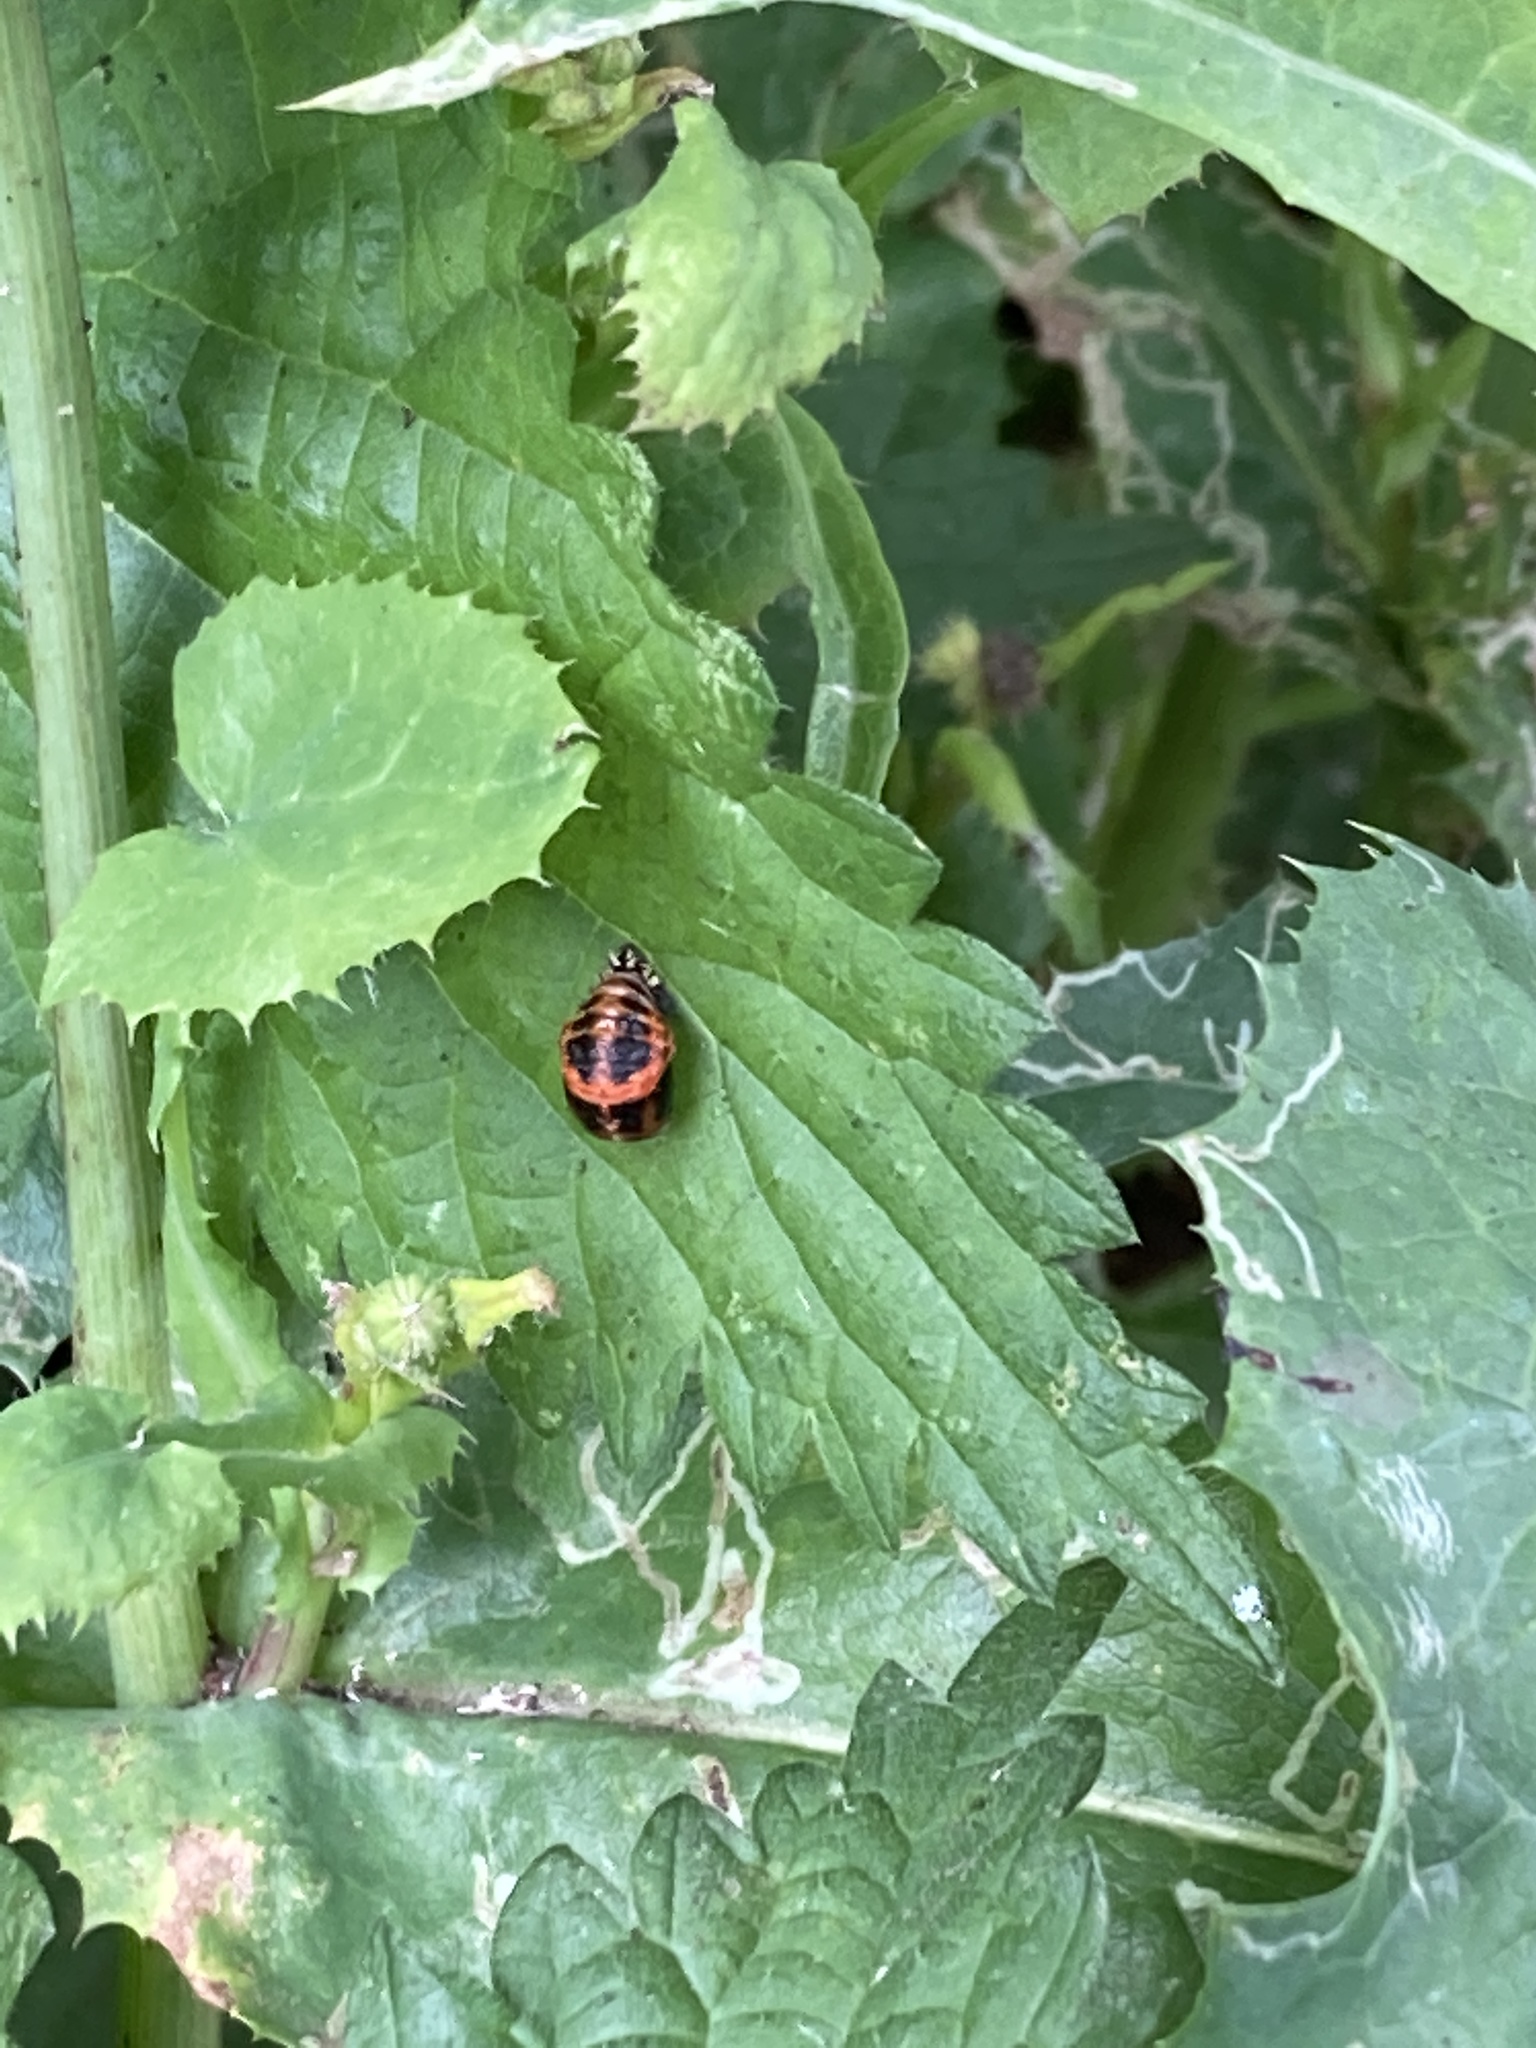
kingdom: Animalia
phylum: Arthropoda
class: Insecta
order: Coleoptera
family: Coccinellidae
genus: Harmonia
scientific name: Harmonia axyridis
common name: Harlequin ladybird
